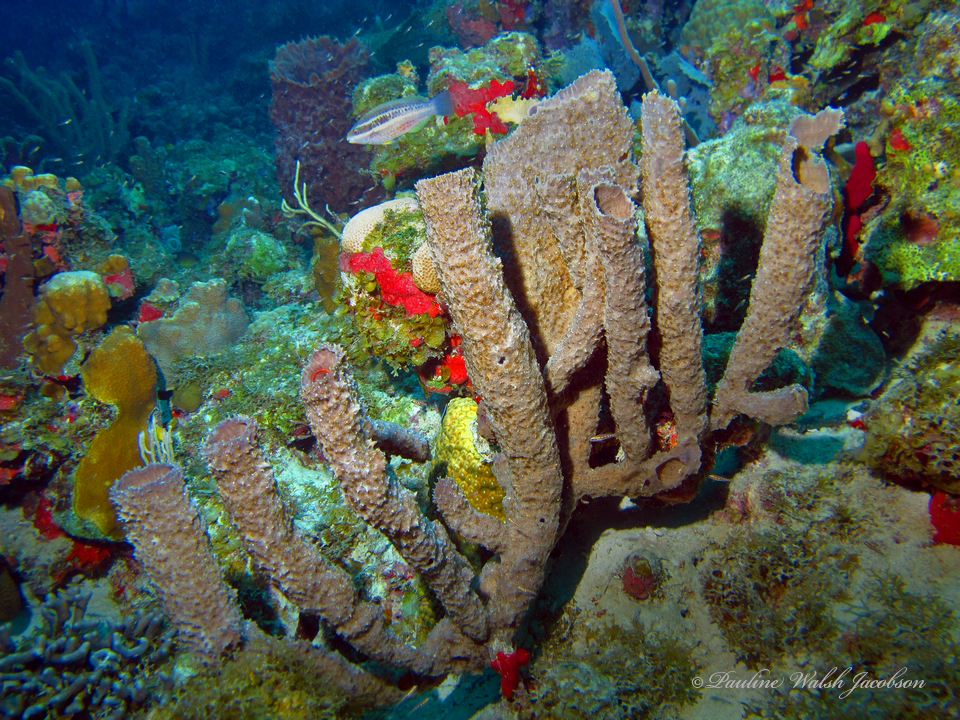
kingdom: Animalia
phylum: Porifera
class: Demospongiae
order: Haplosclerida
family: Callyspongiidae
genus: Callyspongia
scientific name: Callyspongia aculeata
